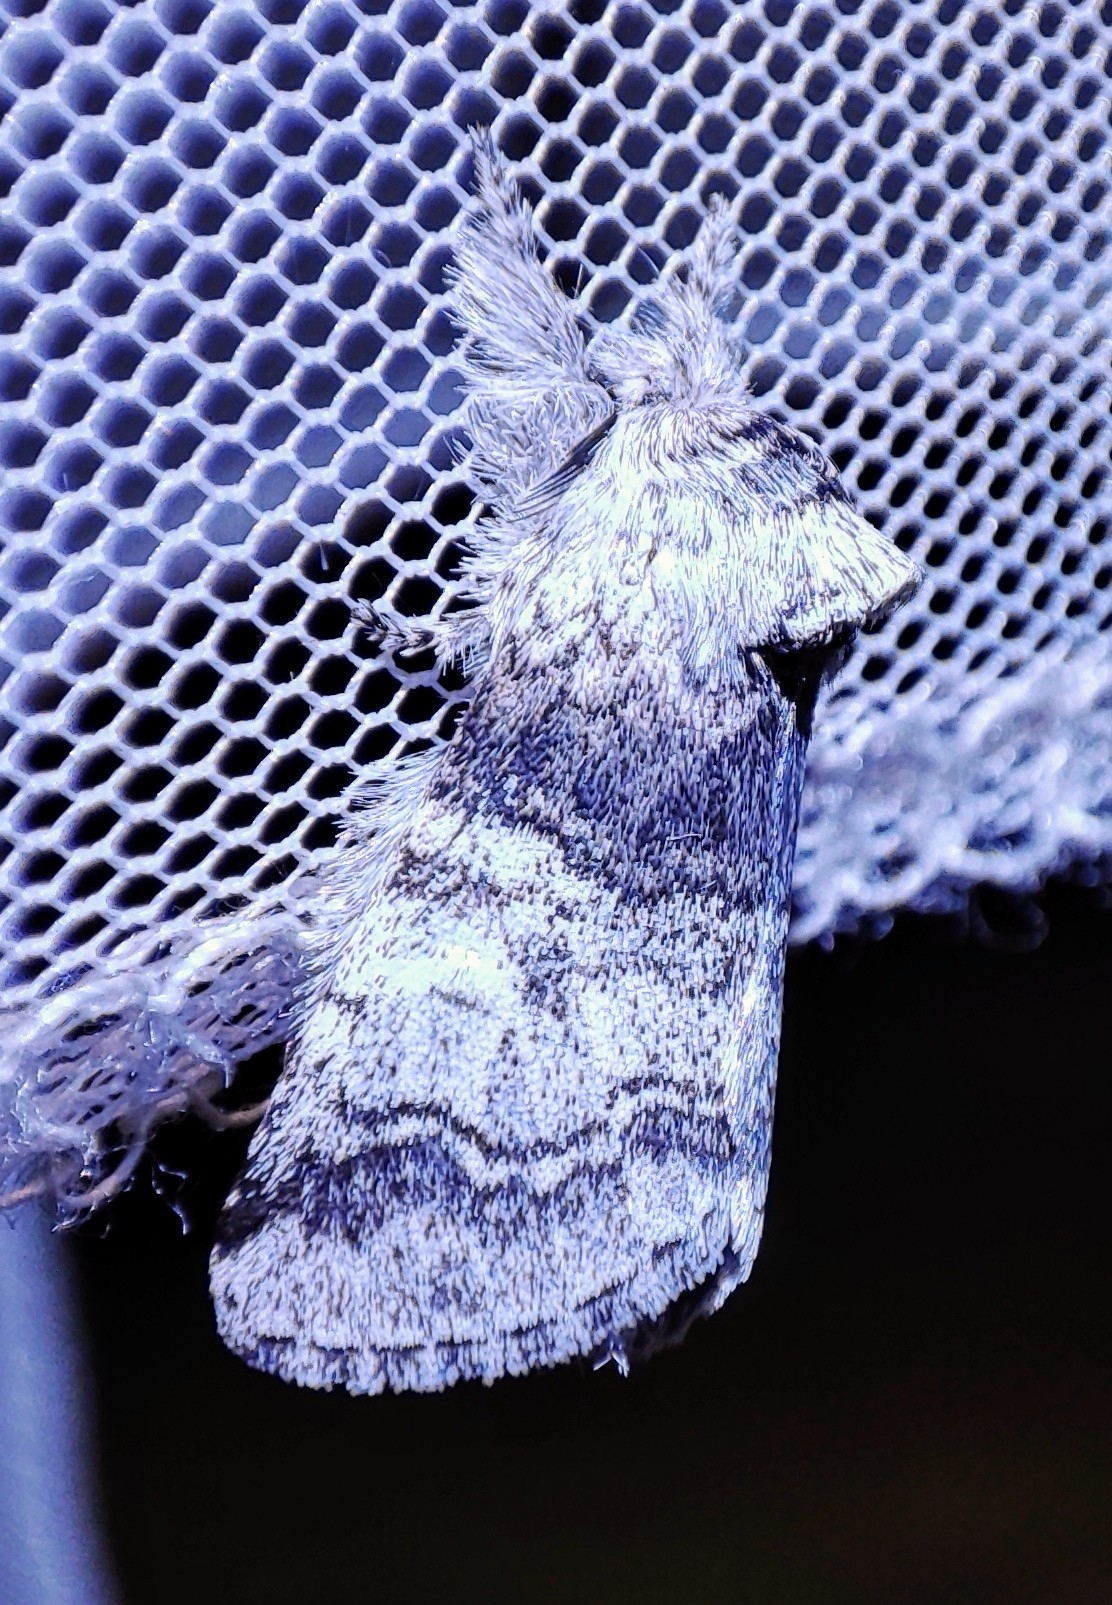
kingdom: Animalia
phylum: Arthropoda
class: Insecta
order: Lepidoptera
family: Notodontidae
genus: Pararethona
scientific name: Pararethona hierax
